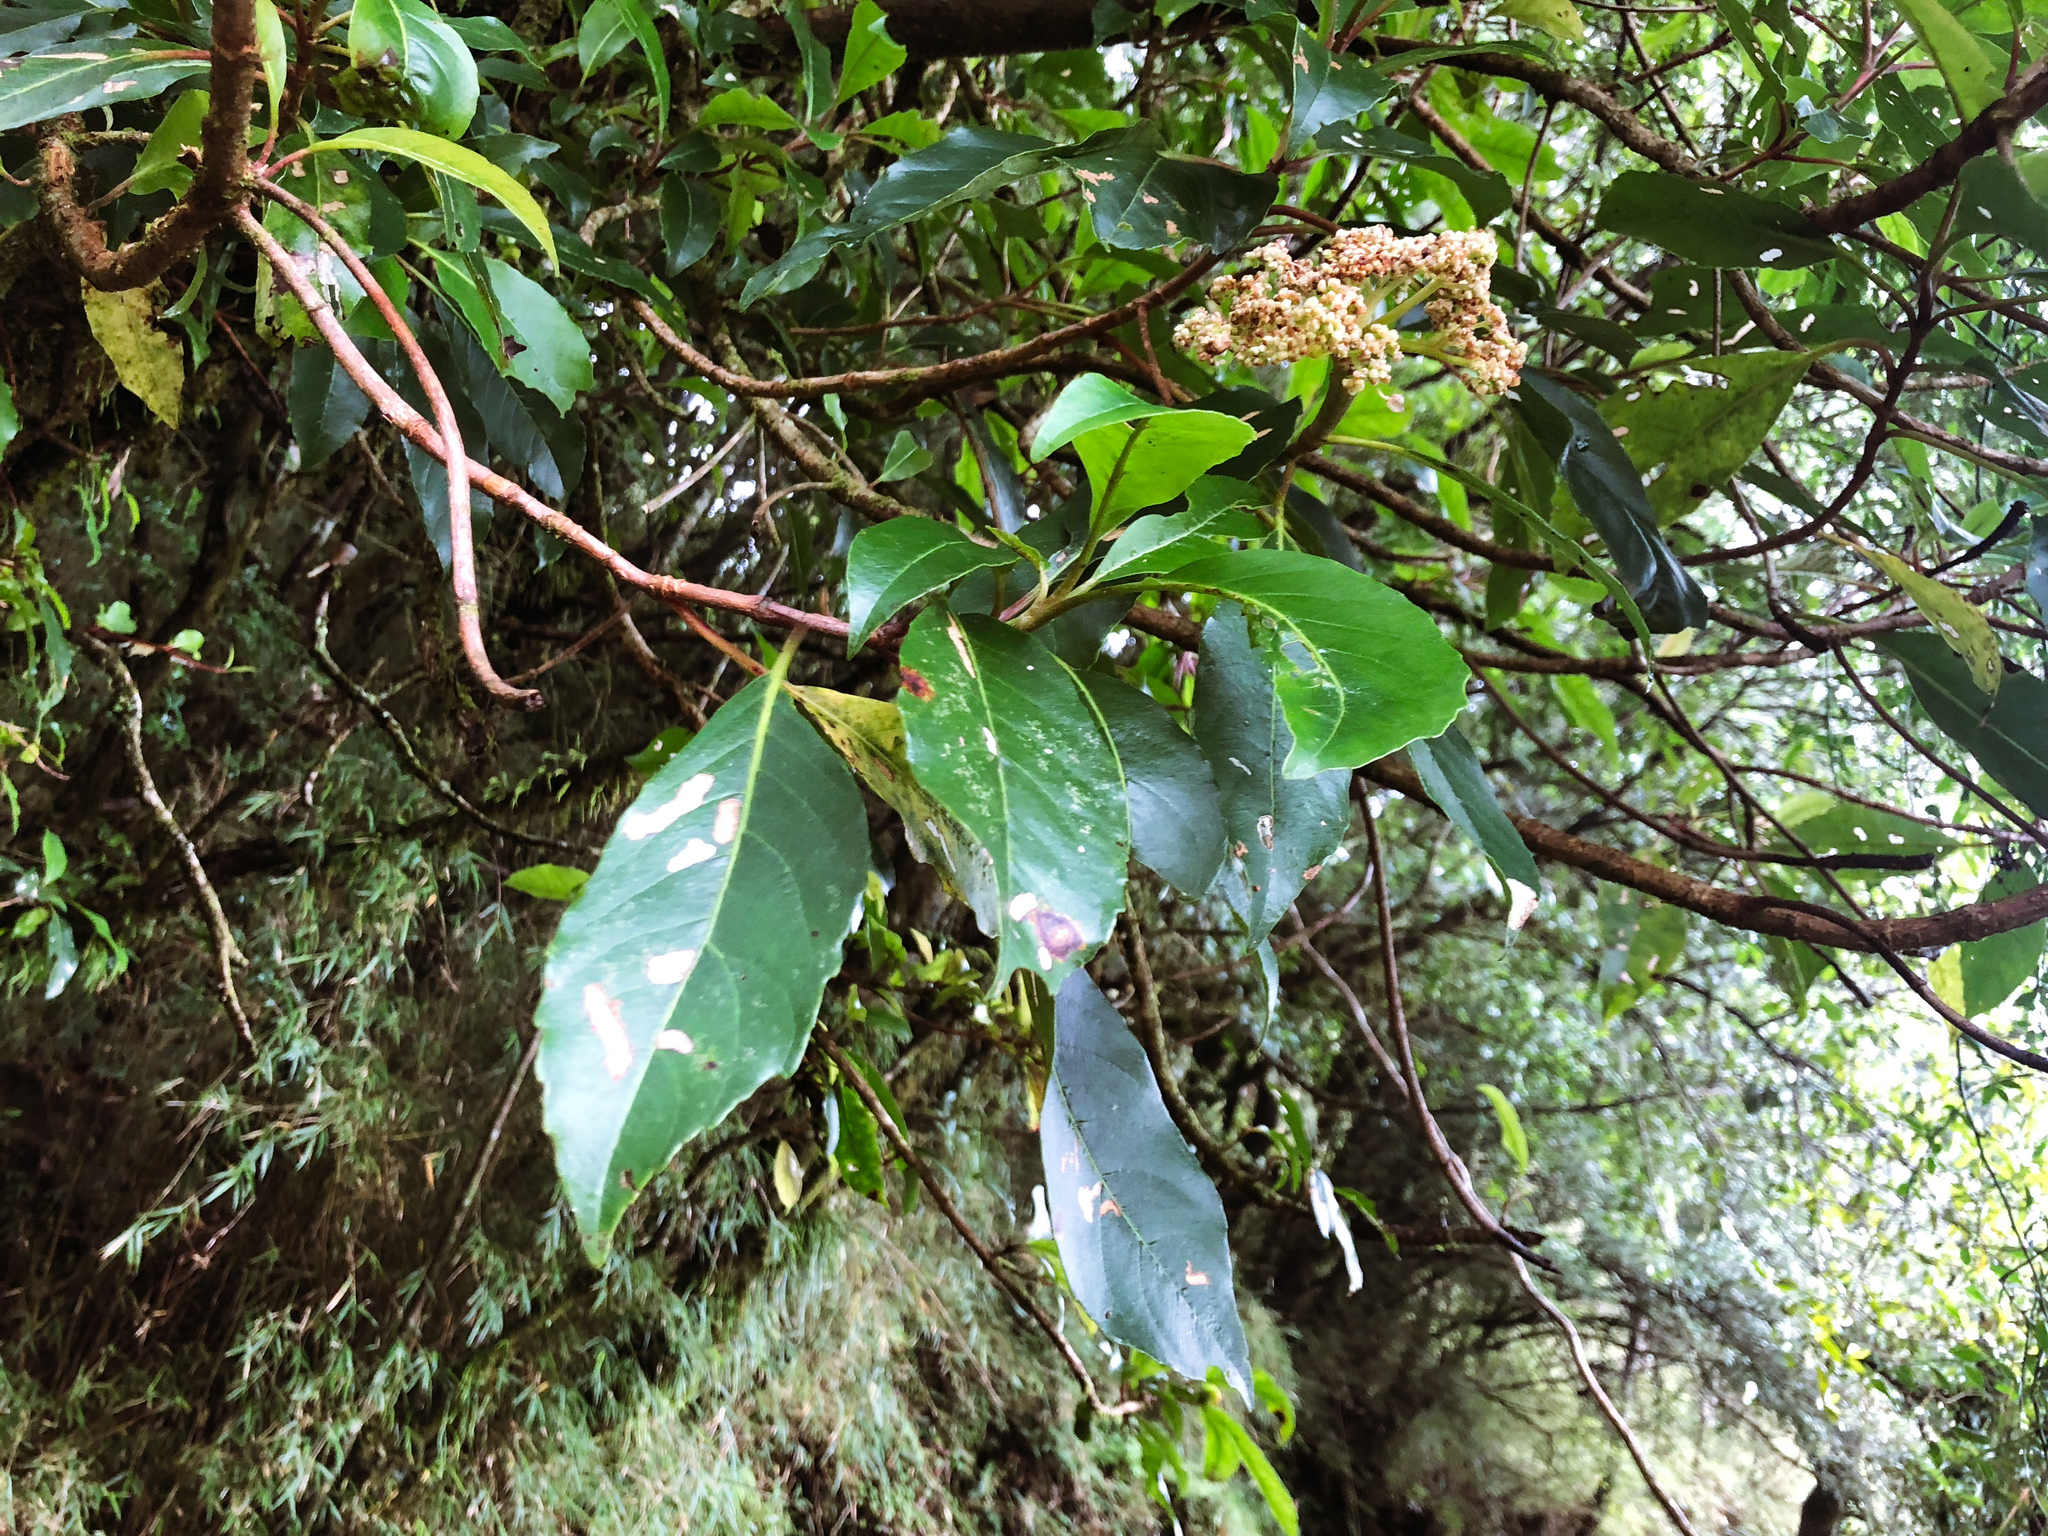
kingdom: Plantae
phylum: Tracheophyta
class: Magnoliopsida
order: Cornales
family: Hydrangeaceae
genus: Hydrangea
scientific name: Hydrangea integrifolia
